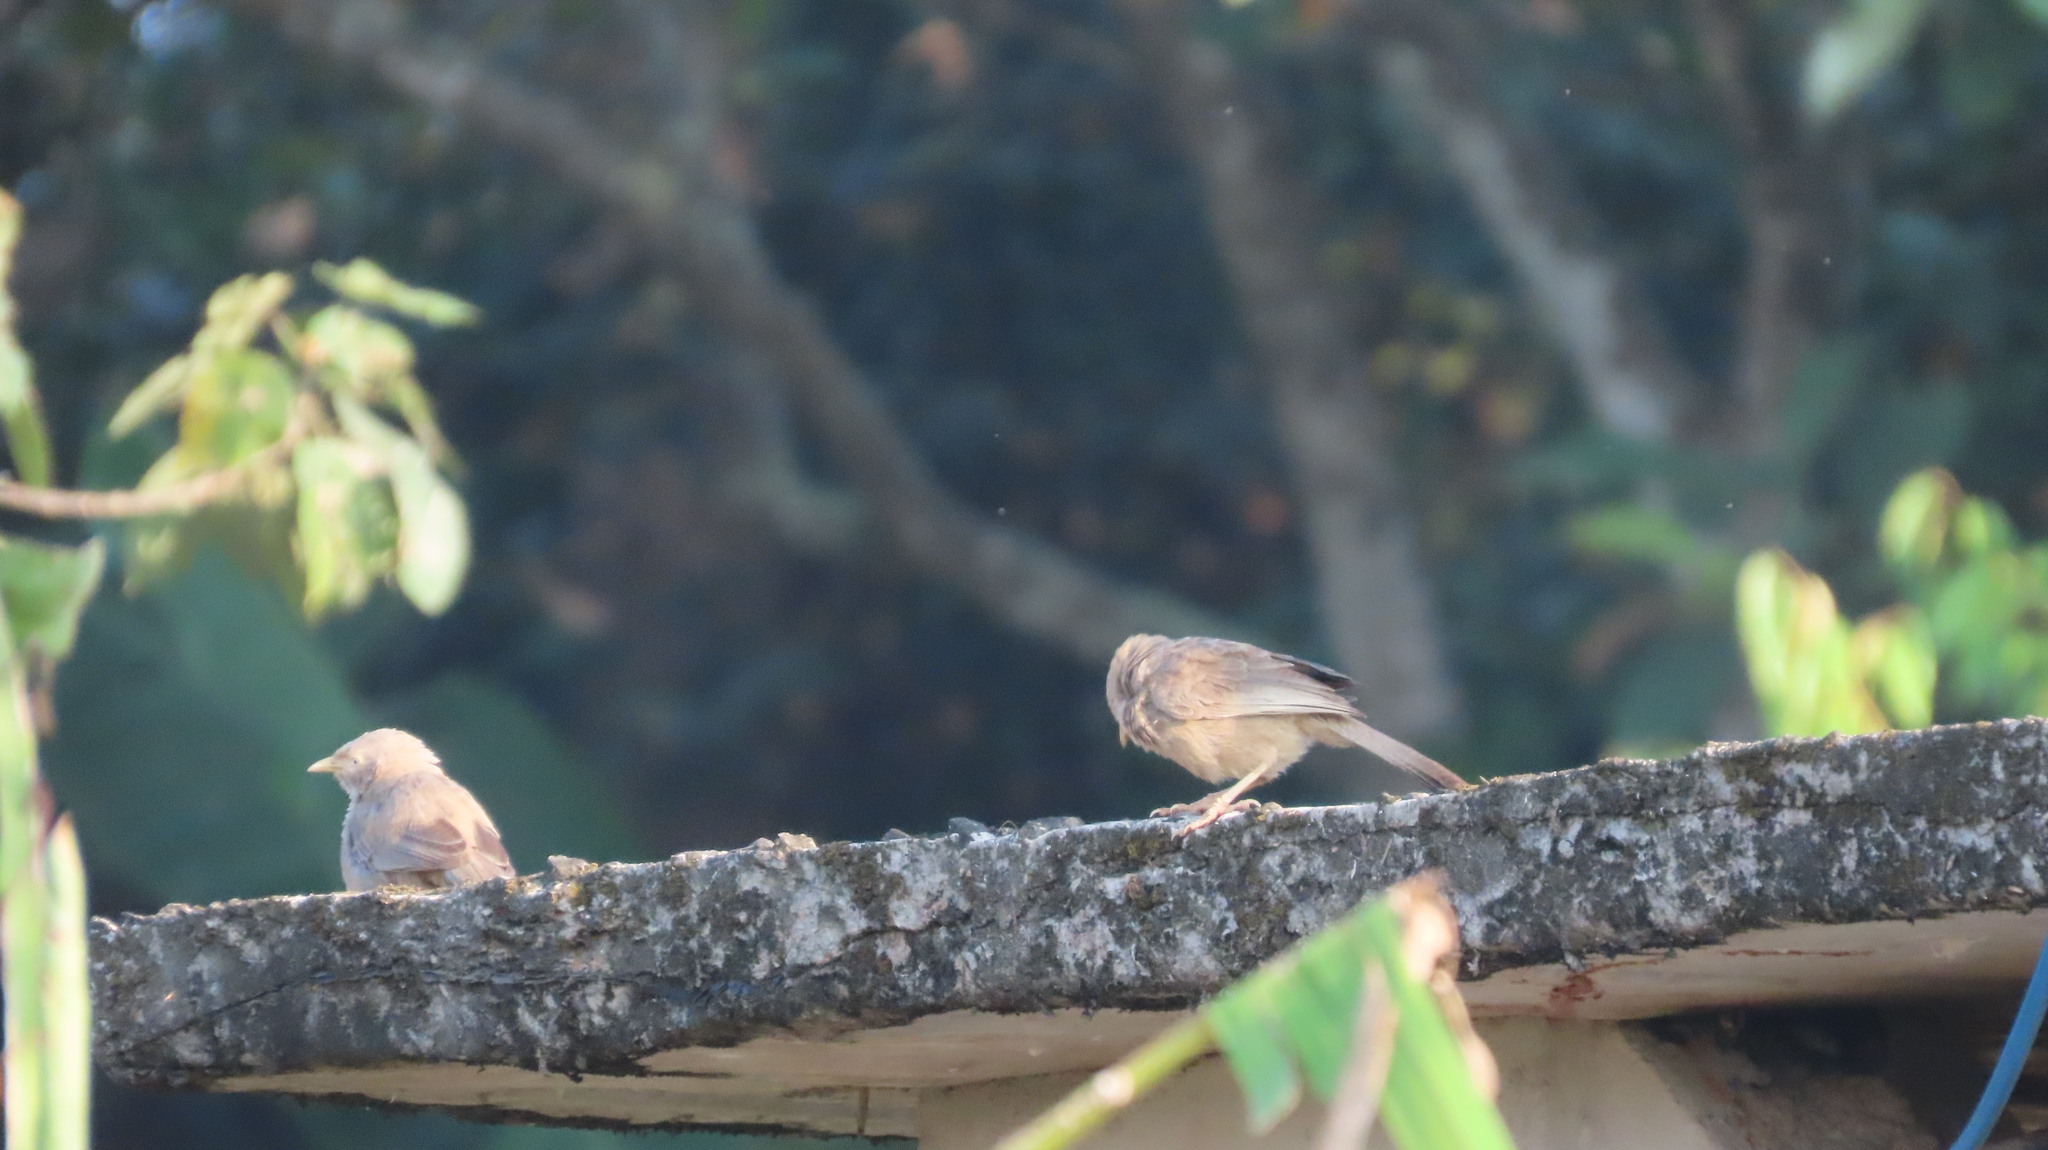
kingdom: Animalia
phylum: Chordata
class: Aves
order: Passeriformes
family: Leiothrichidae
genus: Turdoides
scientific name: Turdoides affinis
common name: Yellow-billed babbler
